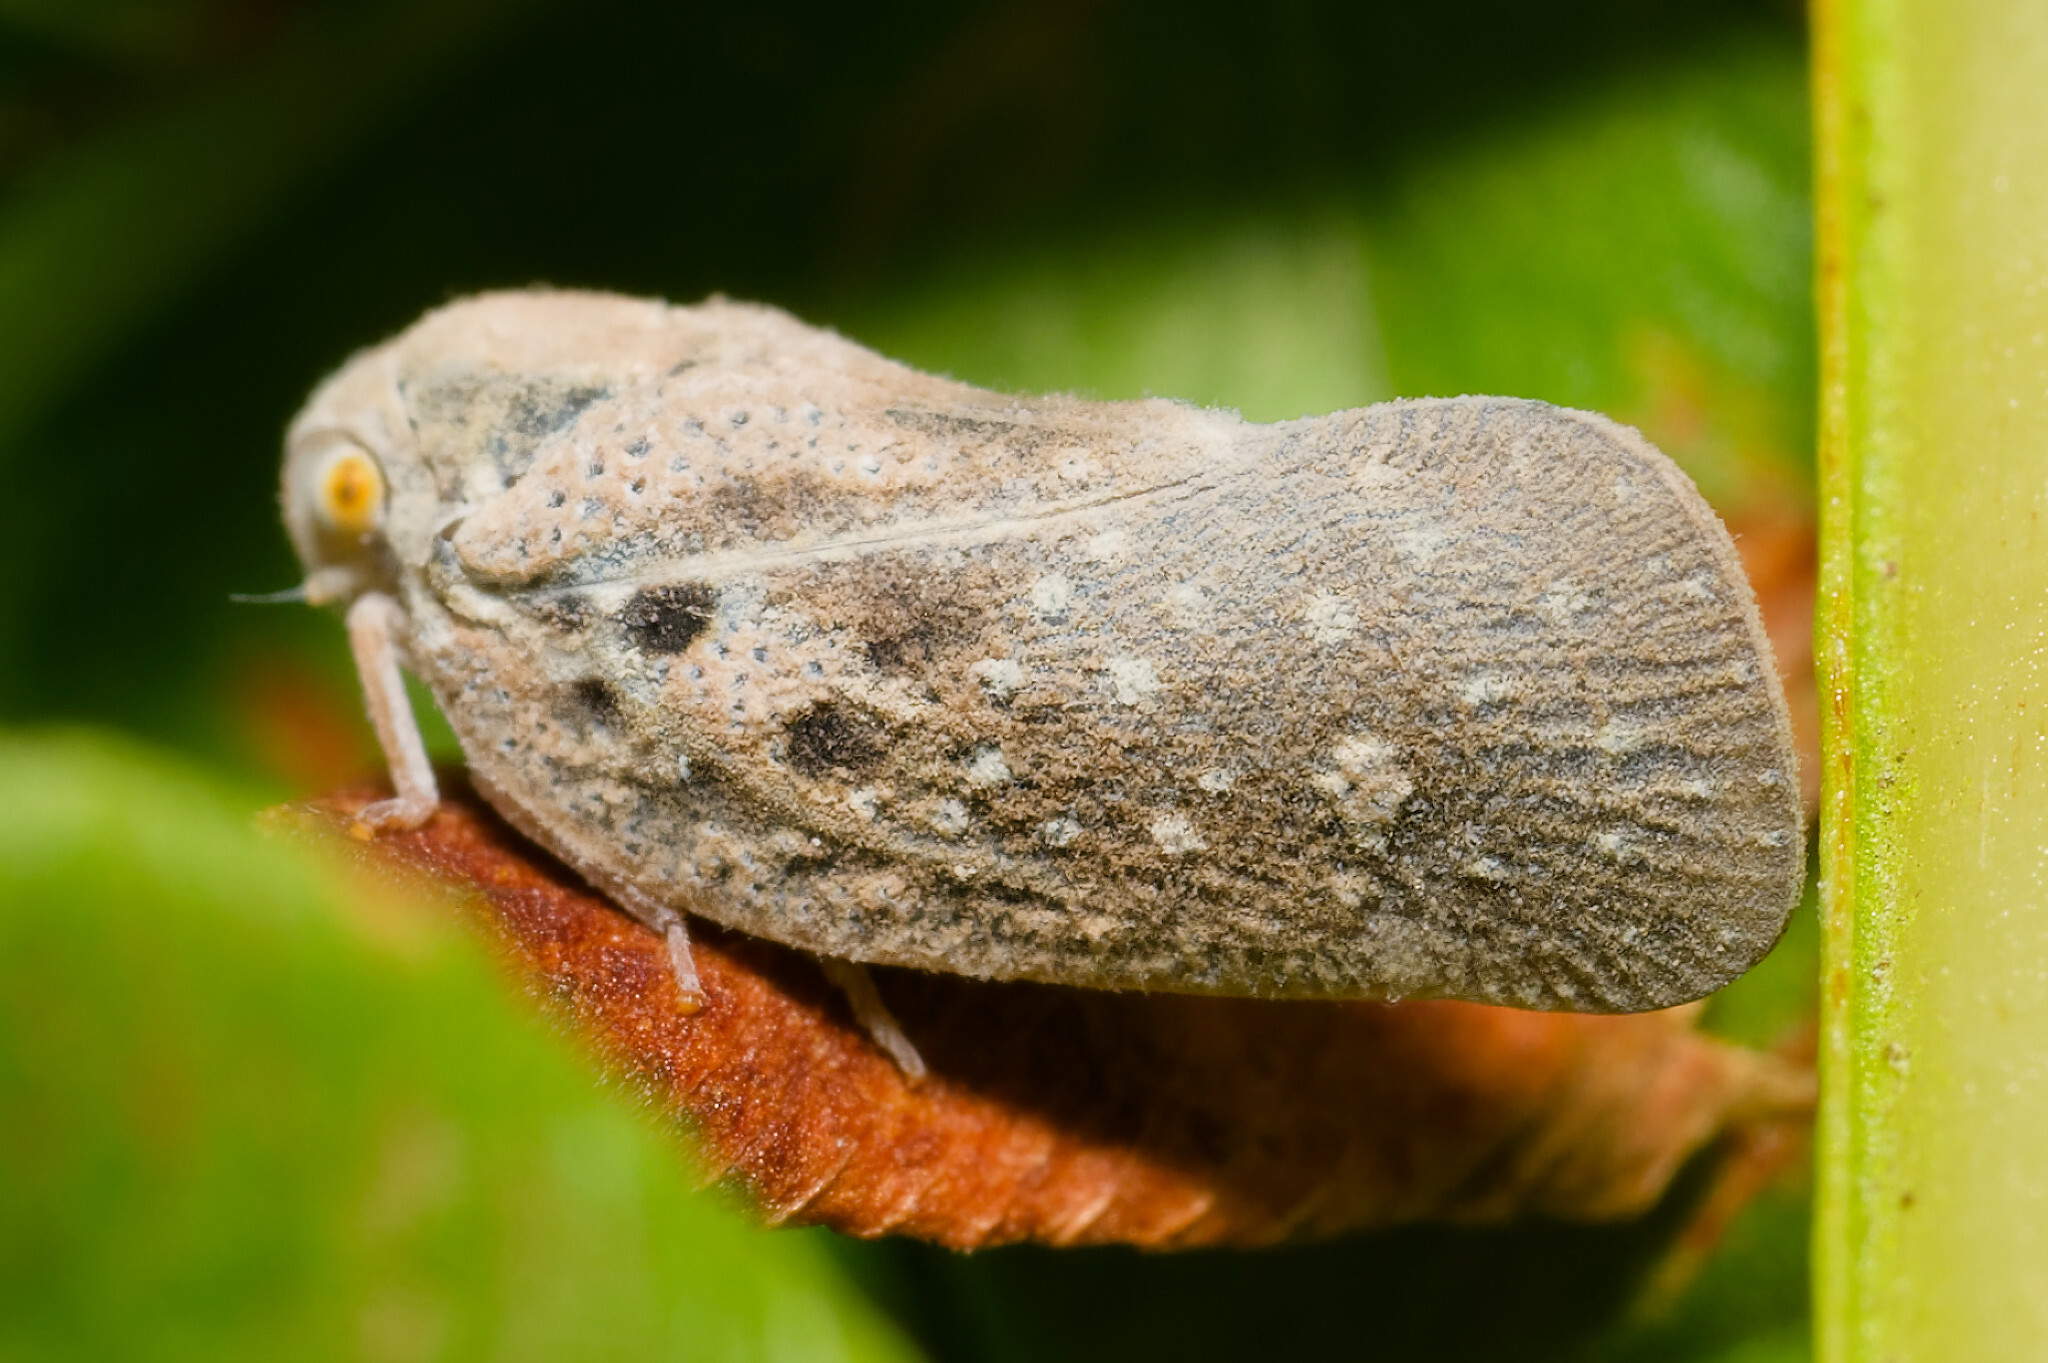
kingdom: Animalia
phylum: Arthropoda
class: Insecta
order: Hemiptera
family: Flatidae
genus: Metcalfa
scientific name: Metcalfa pruinosa
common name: Citrus flatid planthopper
